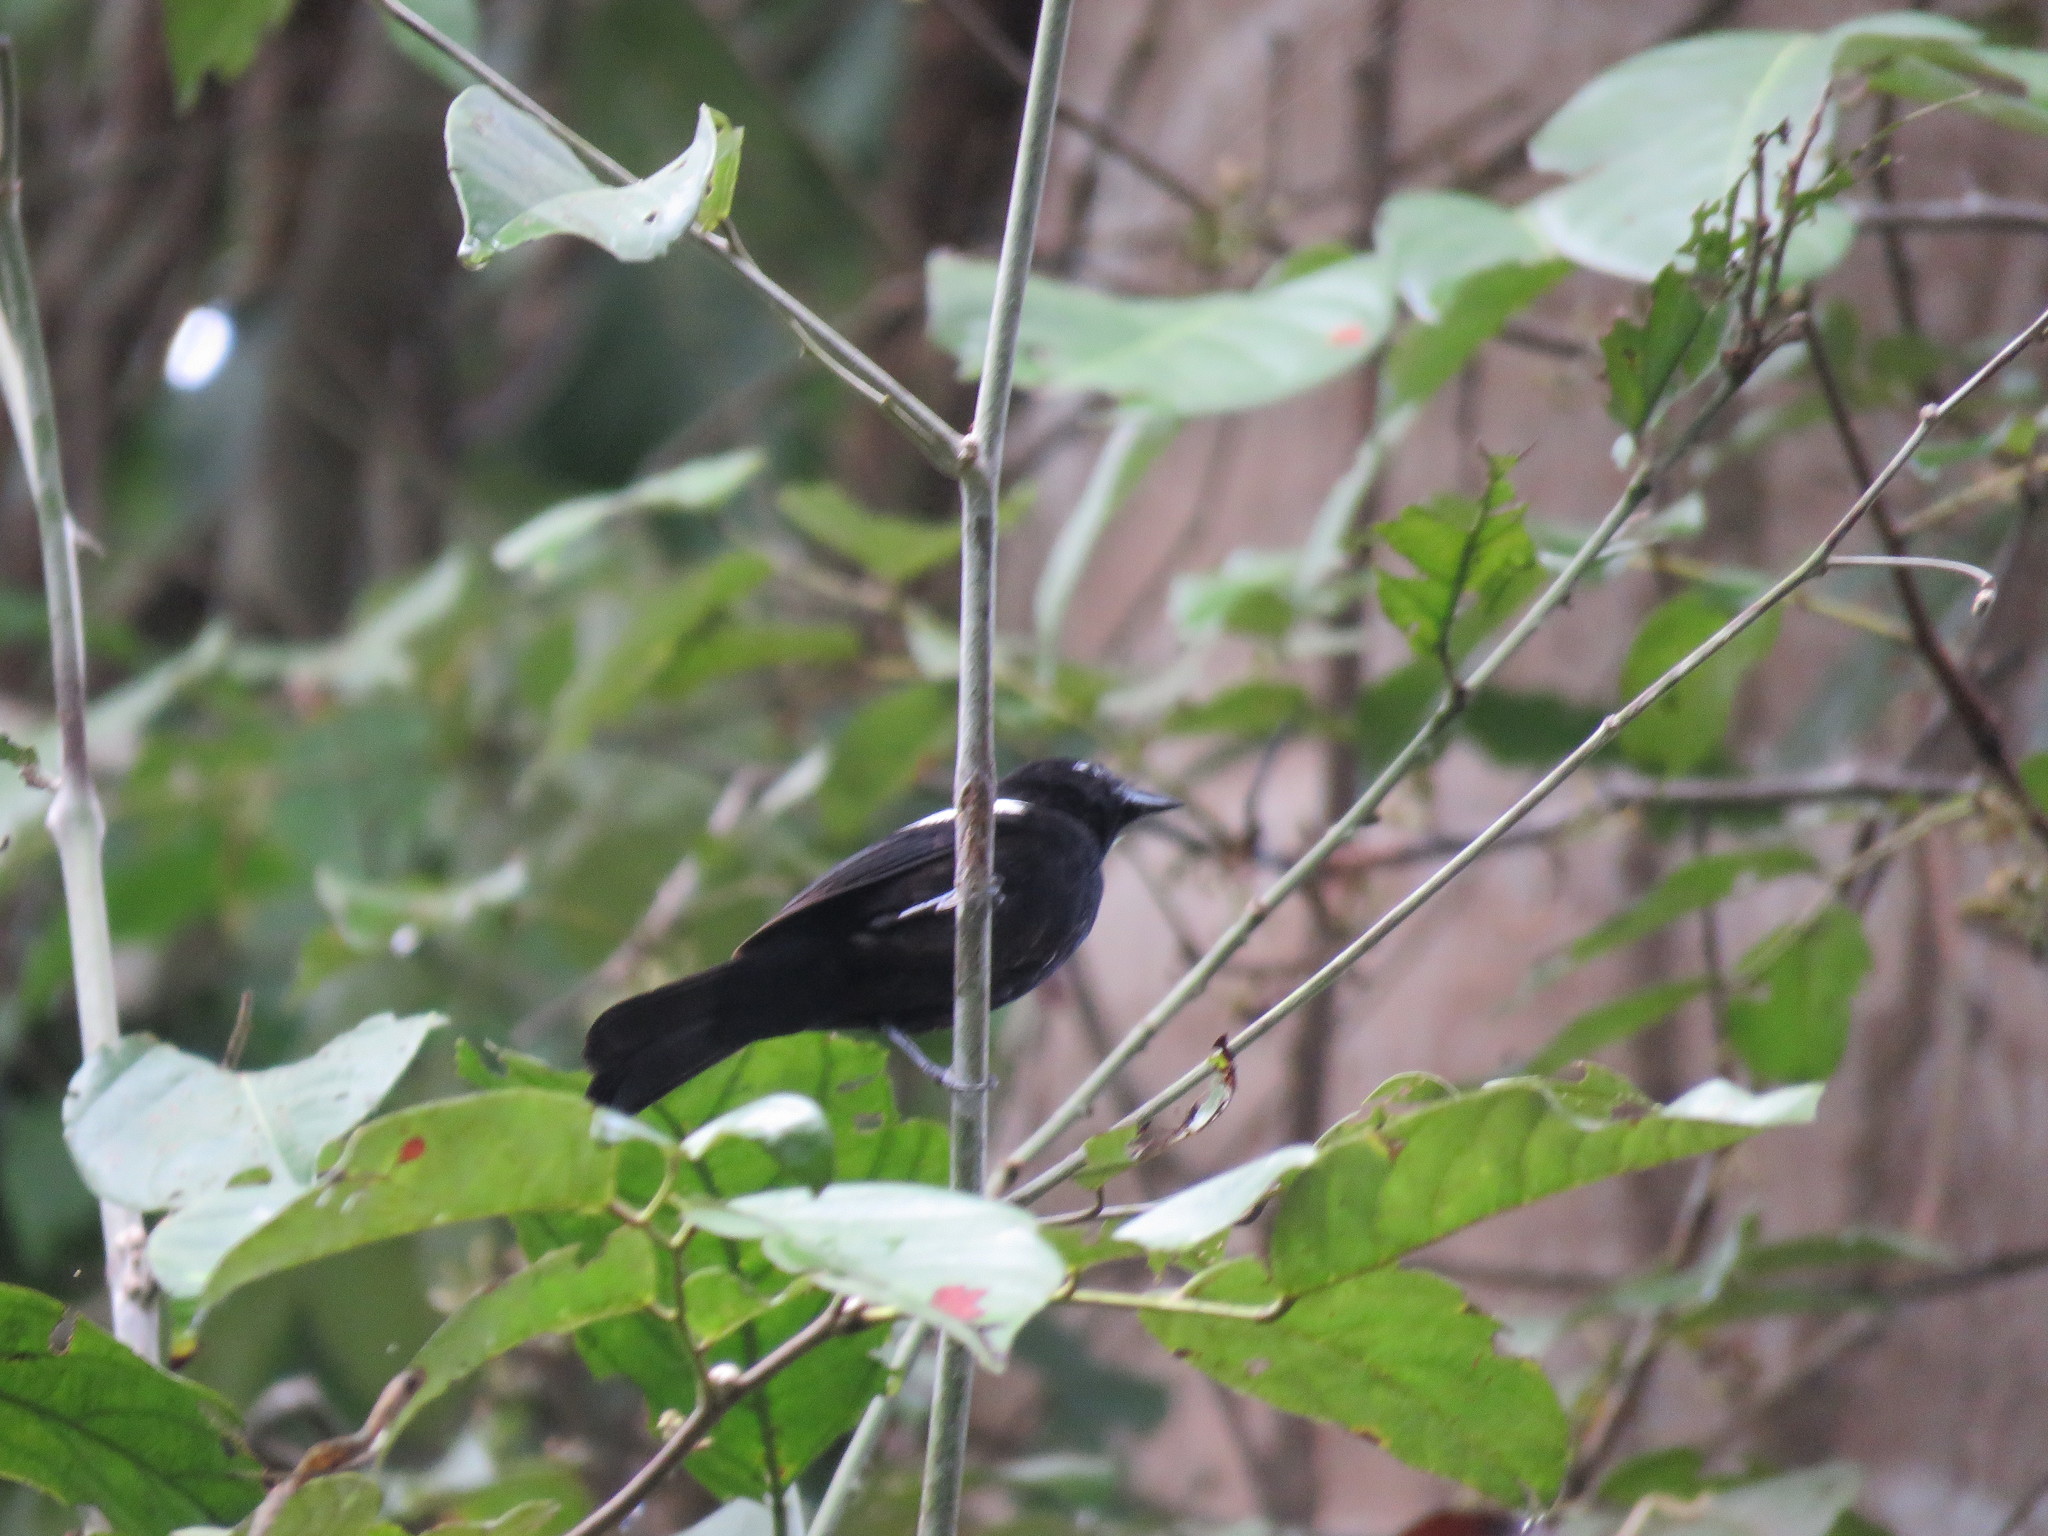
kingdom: Animalia
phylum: Chordata
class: Aves
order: Passeriformes
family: Thraupidae
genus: Loriotus
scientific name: Loriotus luctuosus
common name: White-shouldered tanager
